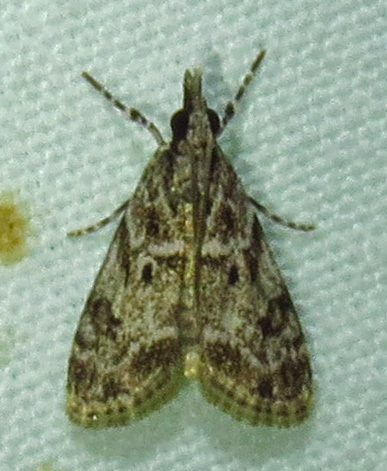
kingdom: Animalia
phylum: Arthropoda
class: Insecta
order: Lepidoptera
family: Crambidae
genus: Eudonia
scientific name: Eudonia heterosalis
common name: Mcdunnough's eudonia
